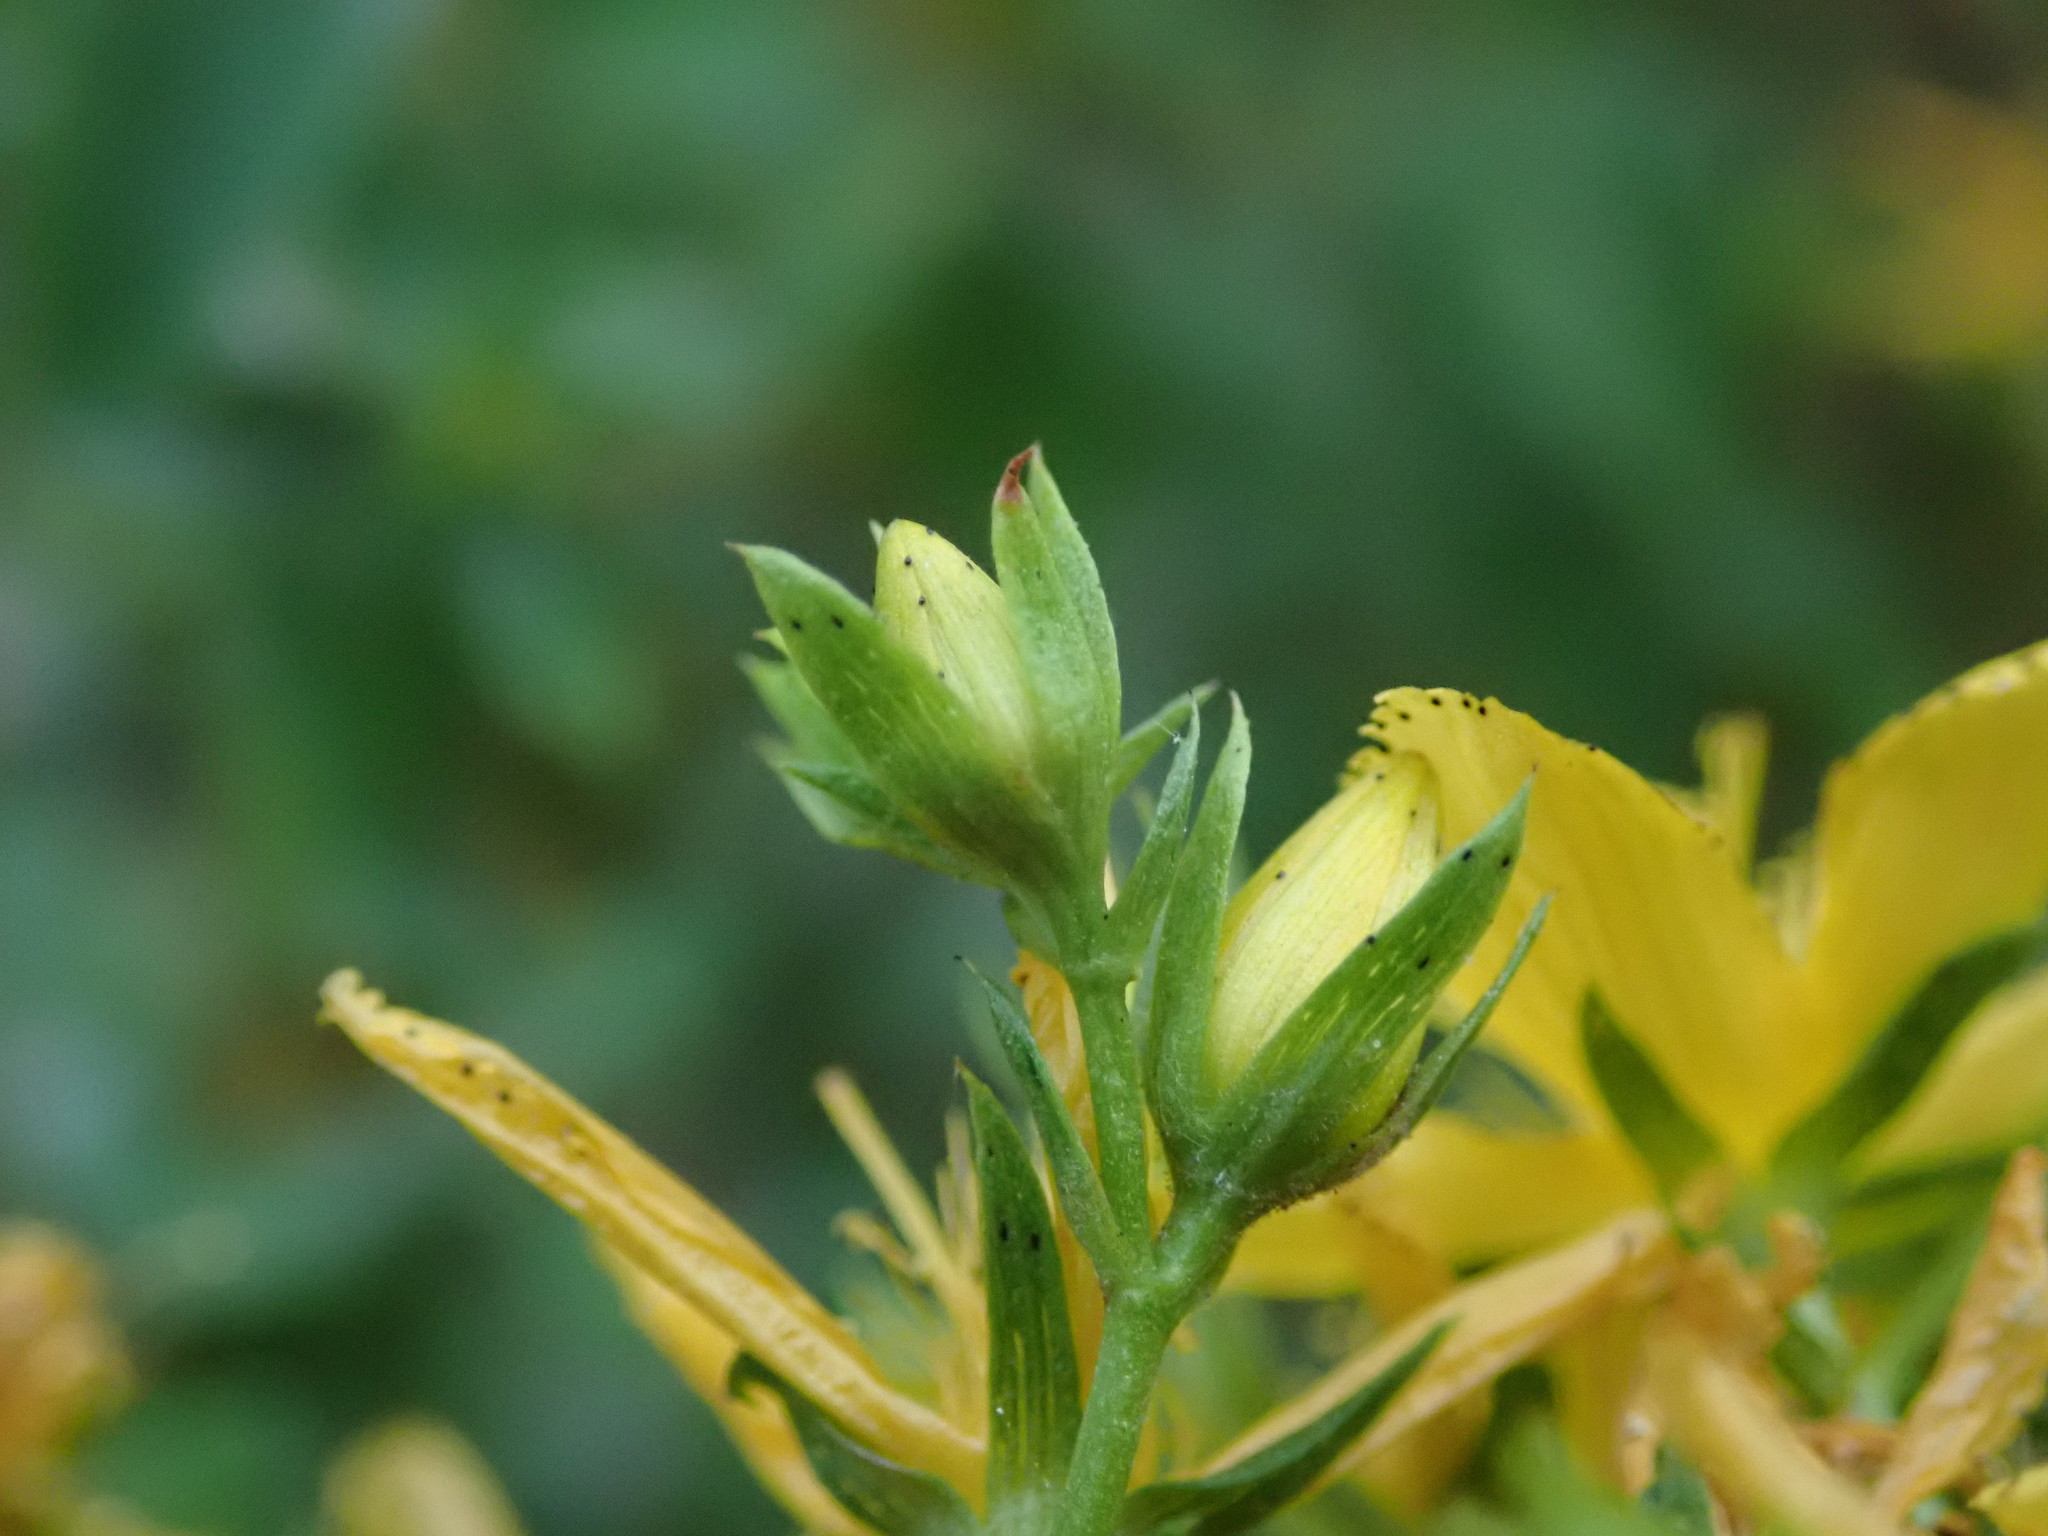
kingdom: Plantae
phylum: Tracheophyta
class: Magnoliopsida
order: Malpighiales
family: Hypericaceae
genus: Hypericum
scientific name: Hypericum perforatum
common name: Common st. johnswort
